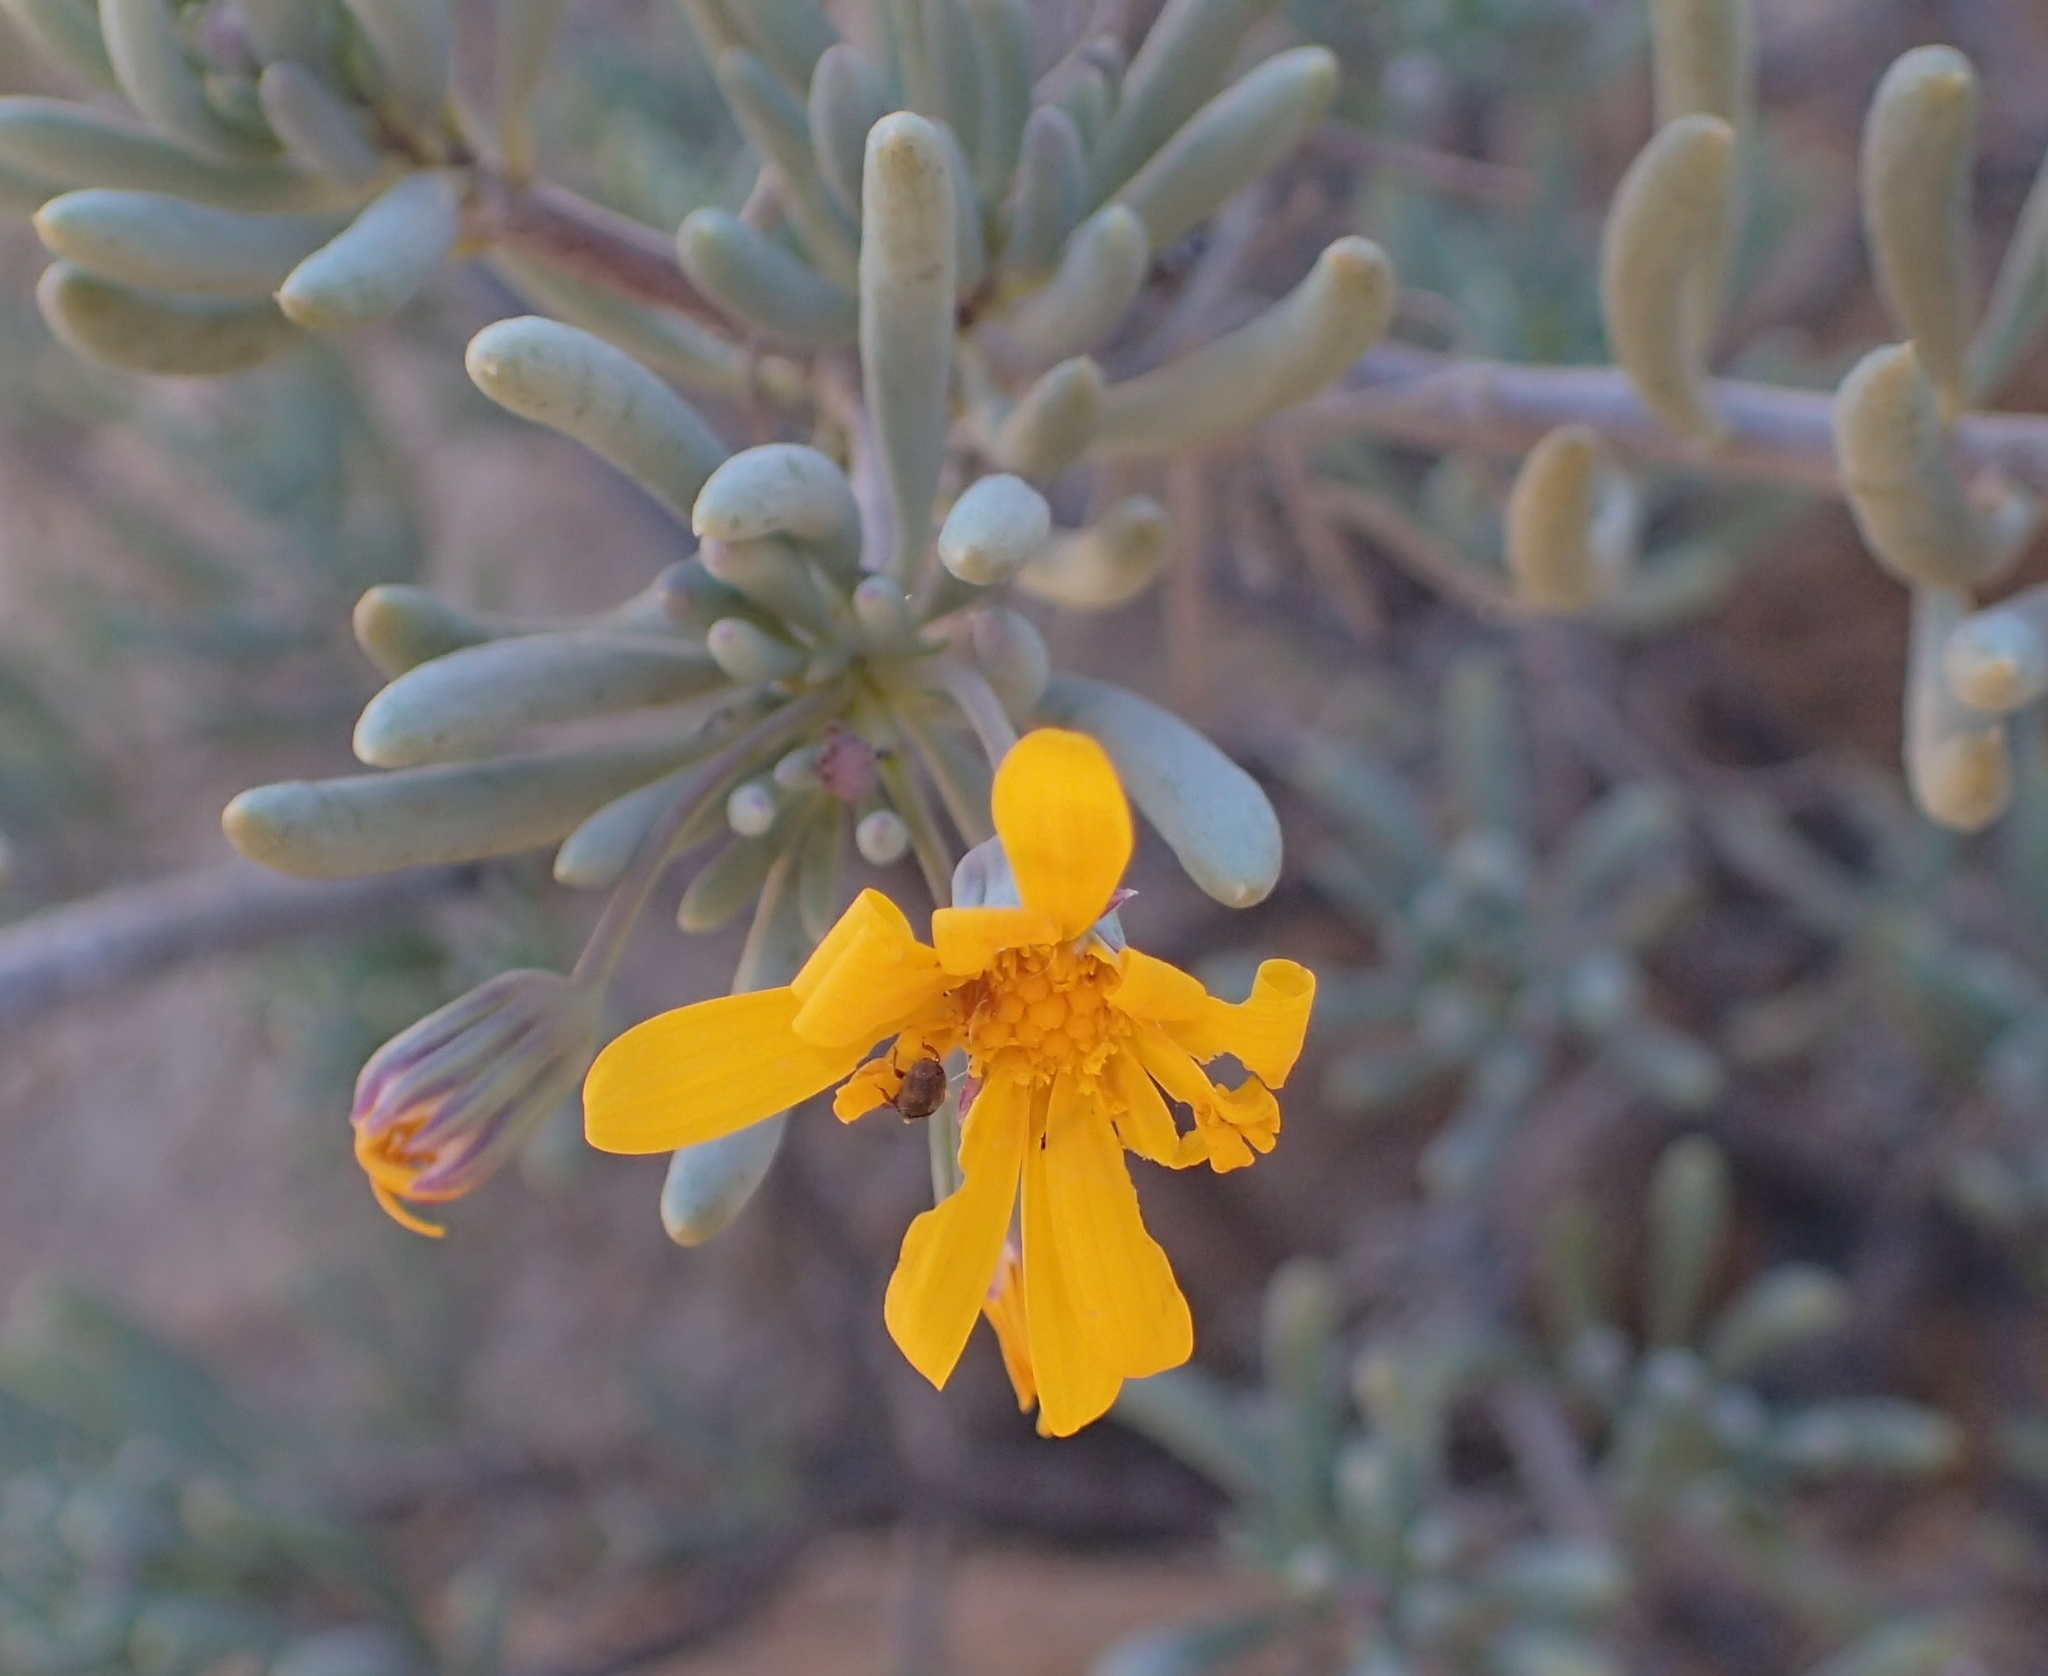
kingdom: Plantae
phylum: Tracheophyta
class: Magnoliopsida
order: Asterales
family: Asteraceae
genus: Crassothonna
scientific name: Crassothonna cylindrica
